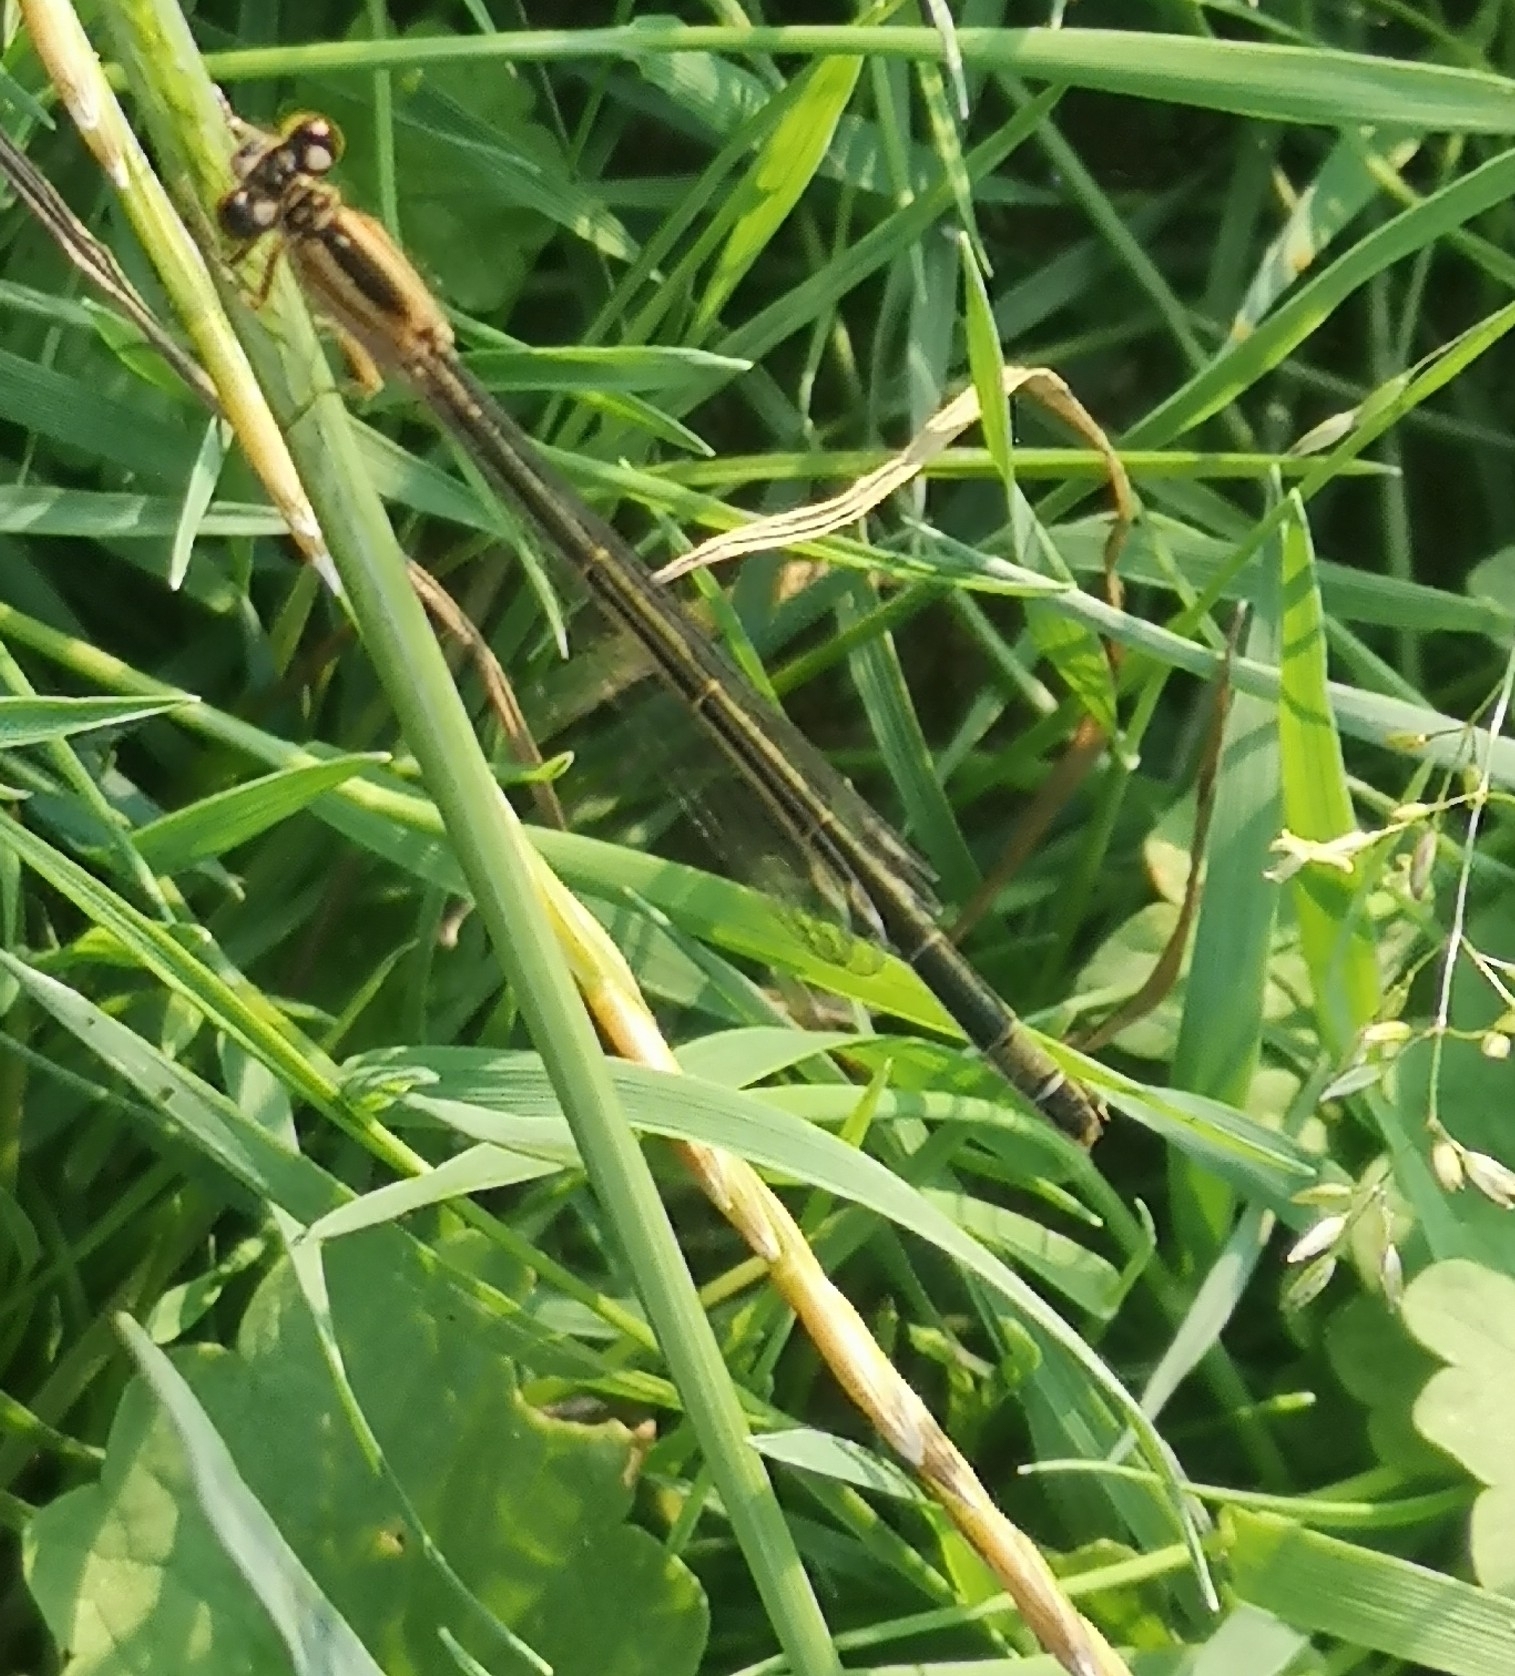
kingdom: Animalia
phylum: Arthropoda
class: Insecta
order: Odonata
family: Coenagrionidae
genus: Ischnura
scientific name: Ischnura elegans
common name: Blue-tailed damselfly
